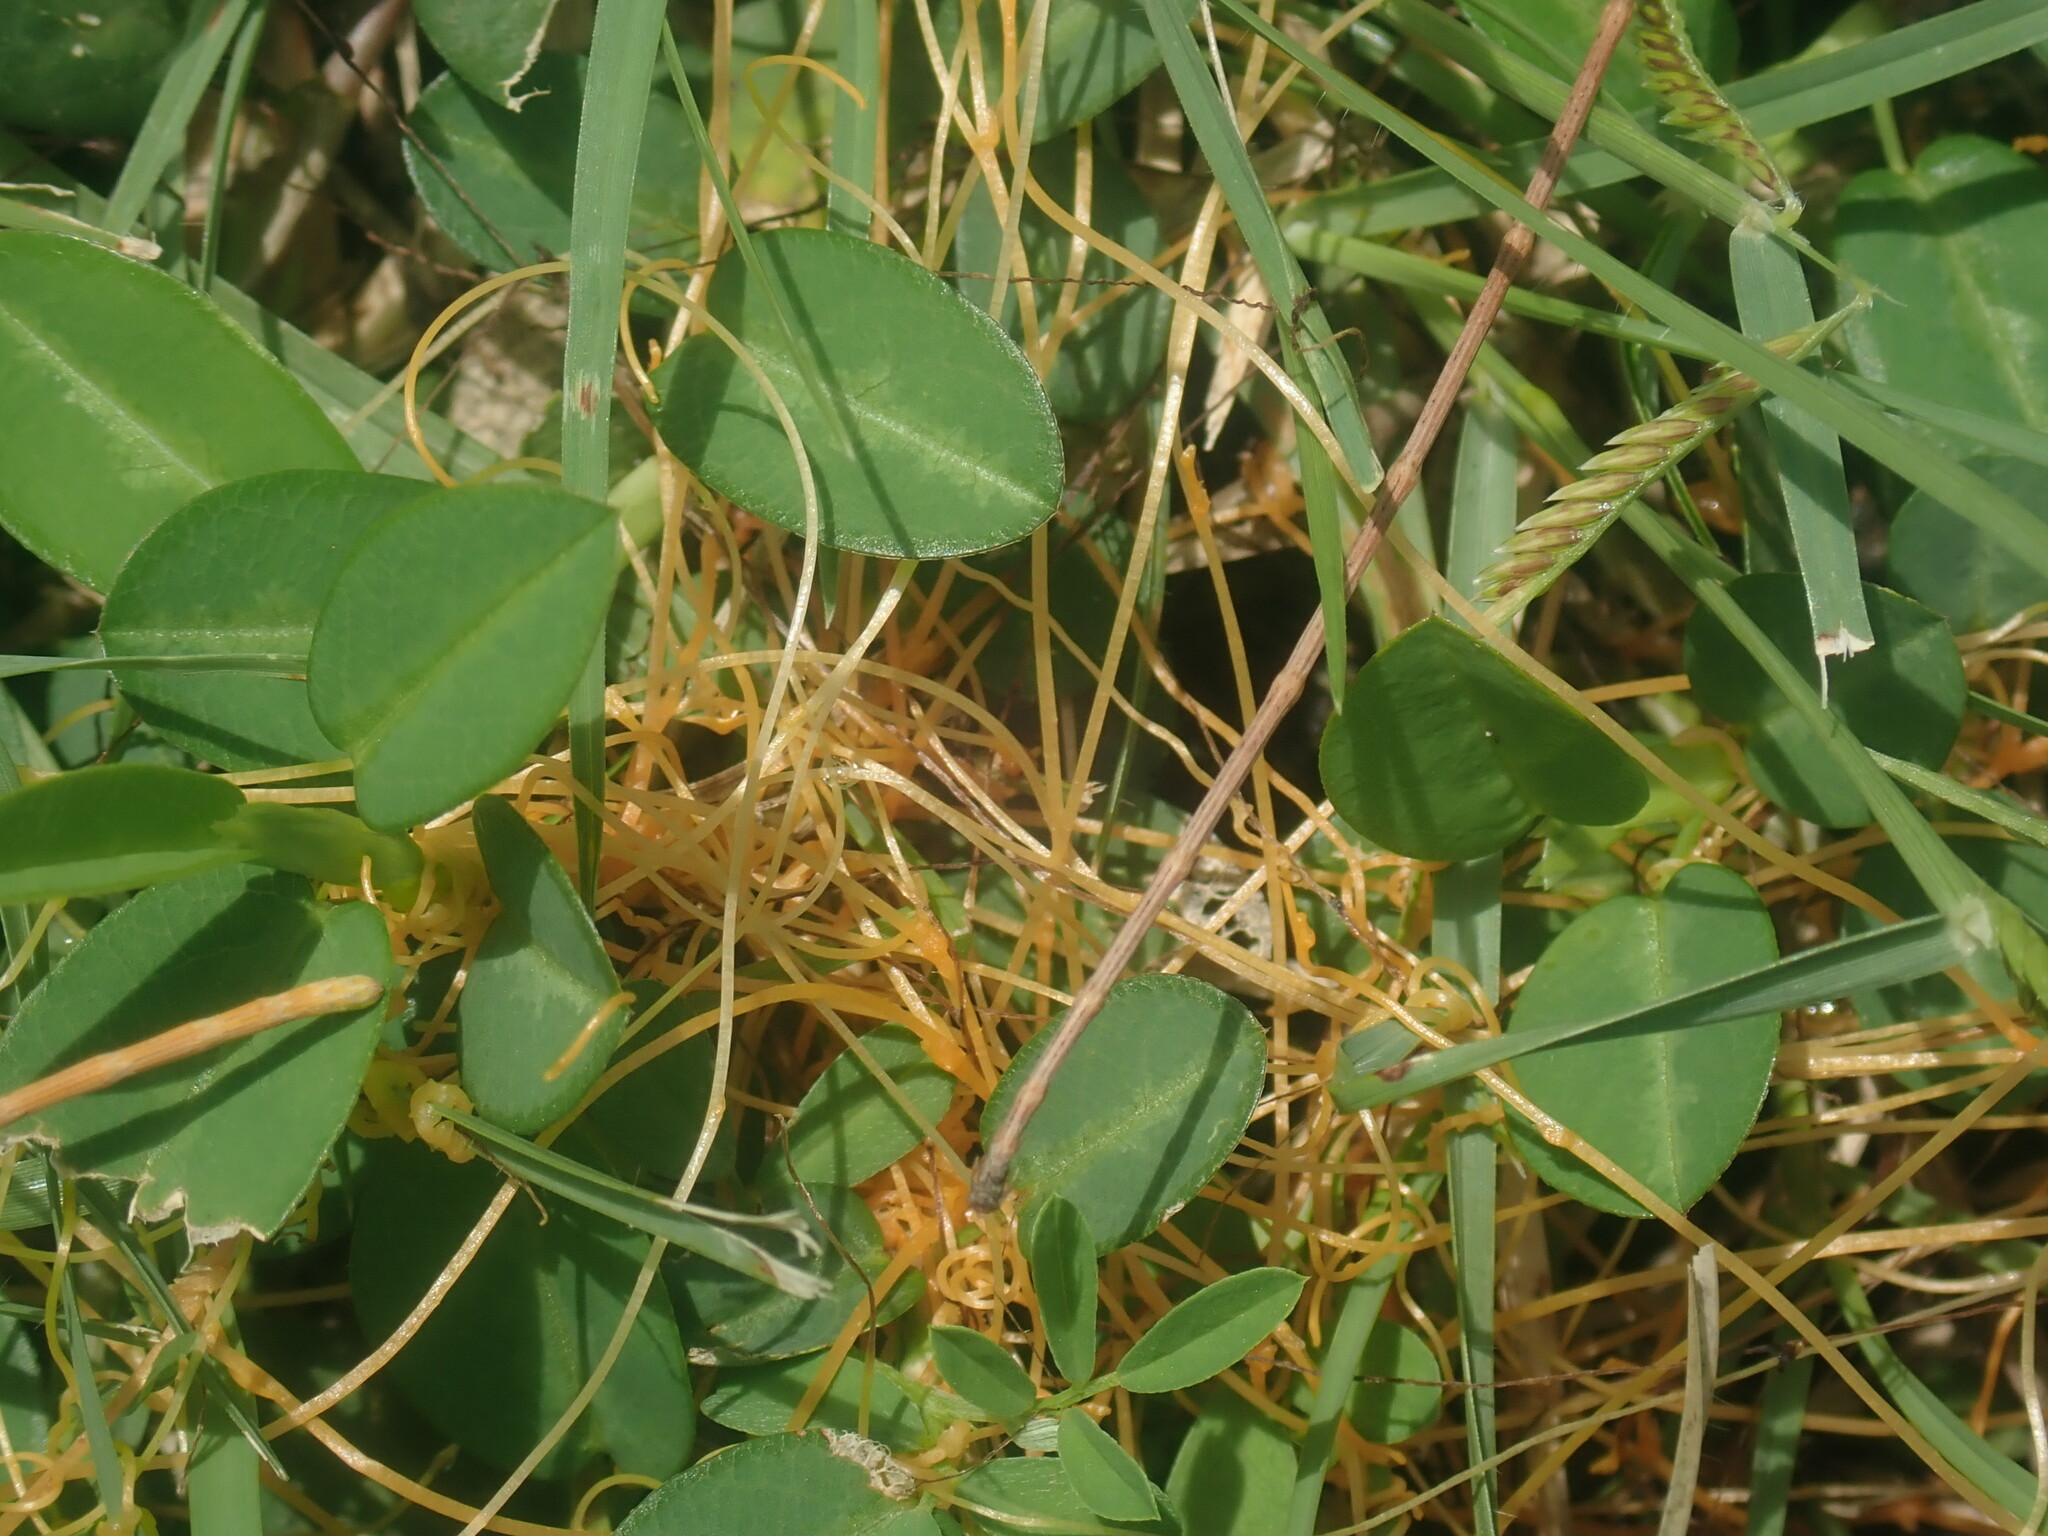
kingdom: Plantae
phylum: Tracheophyta
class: Magnoliopsida
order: Solanales
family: Convolvulaceae
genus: Cuscuta
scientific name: Cuscuta
